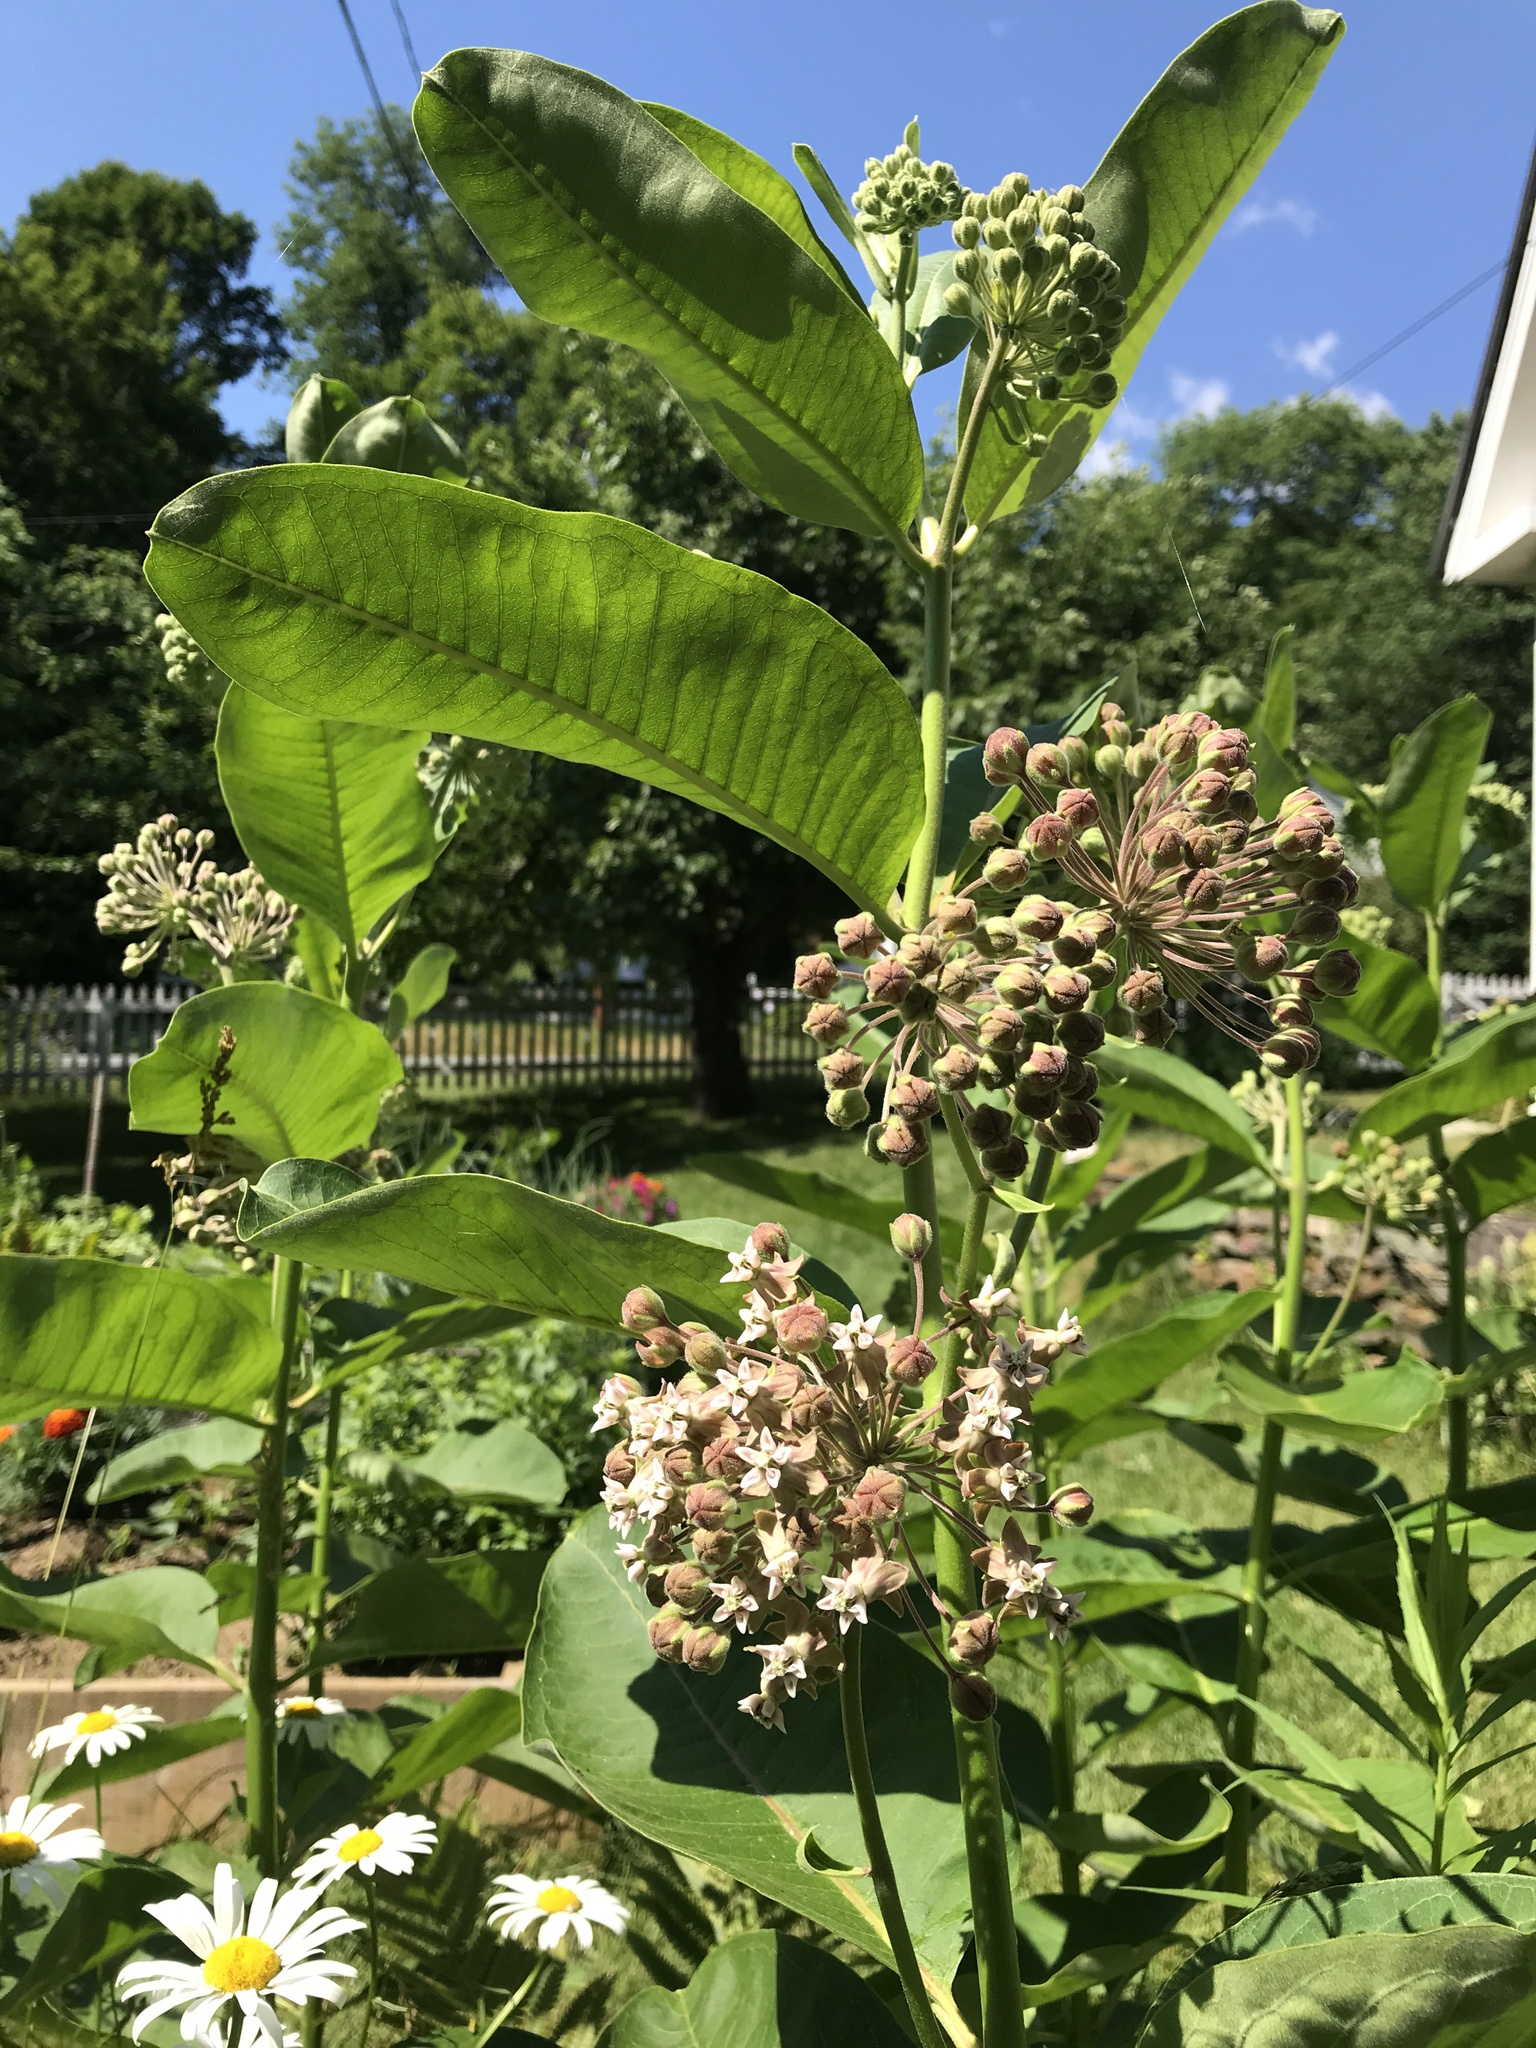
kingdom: Plantae
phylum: Tracheophyta
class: Magnoliopsida
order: Gentianales
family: Apocynaceae
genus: Asclepias
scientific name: Asclepias syriaca
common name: Common milkweed
